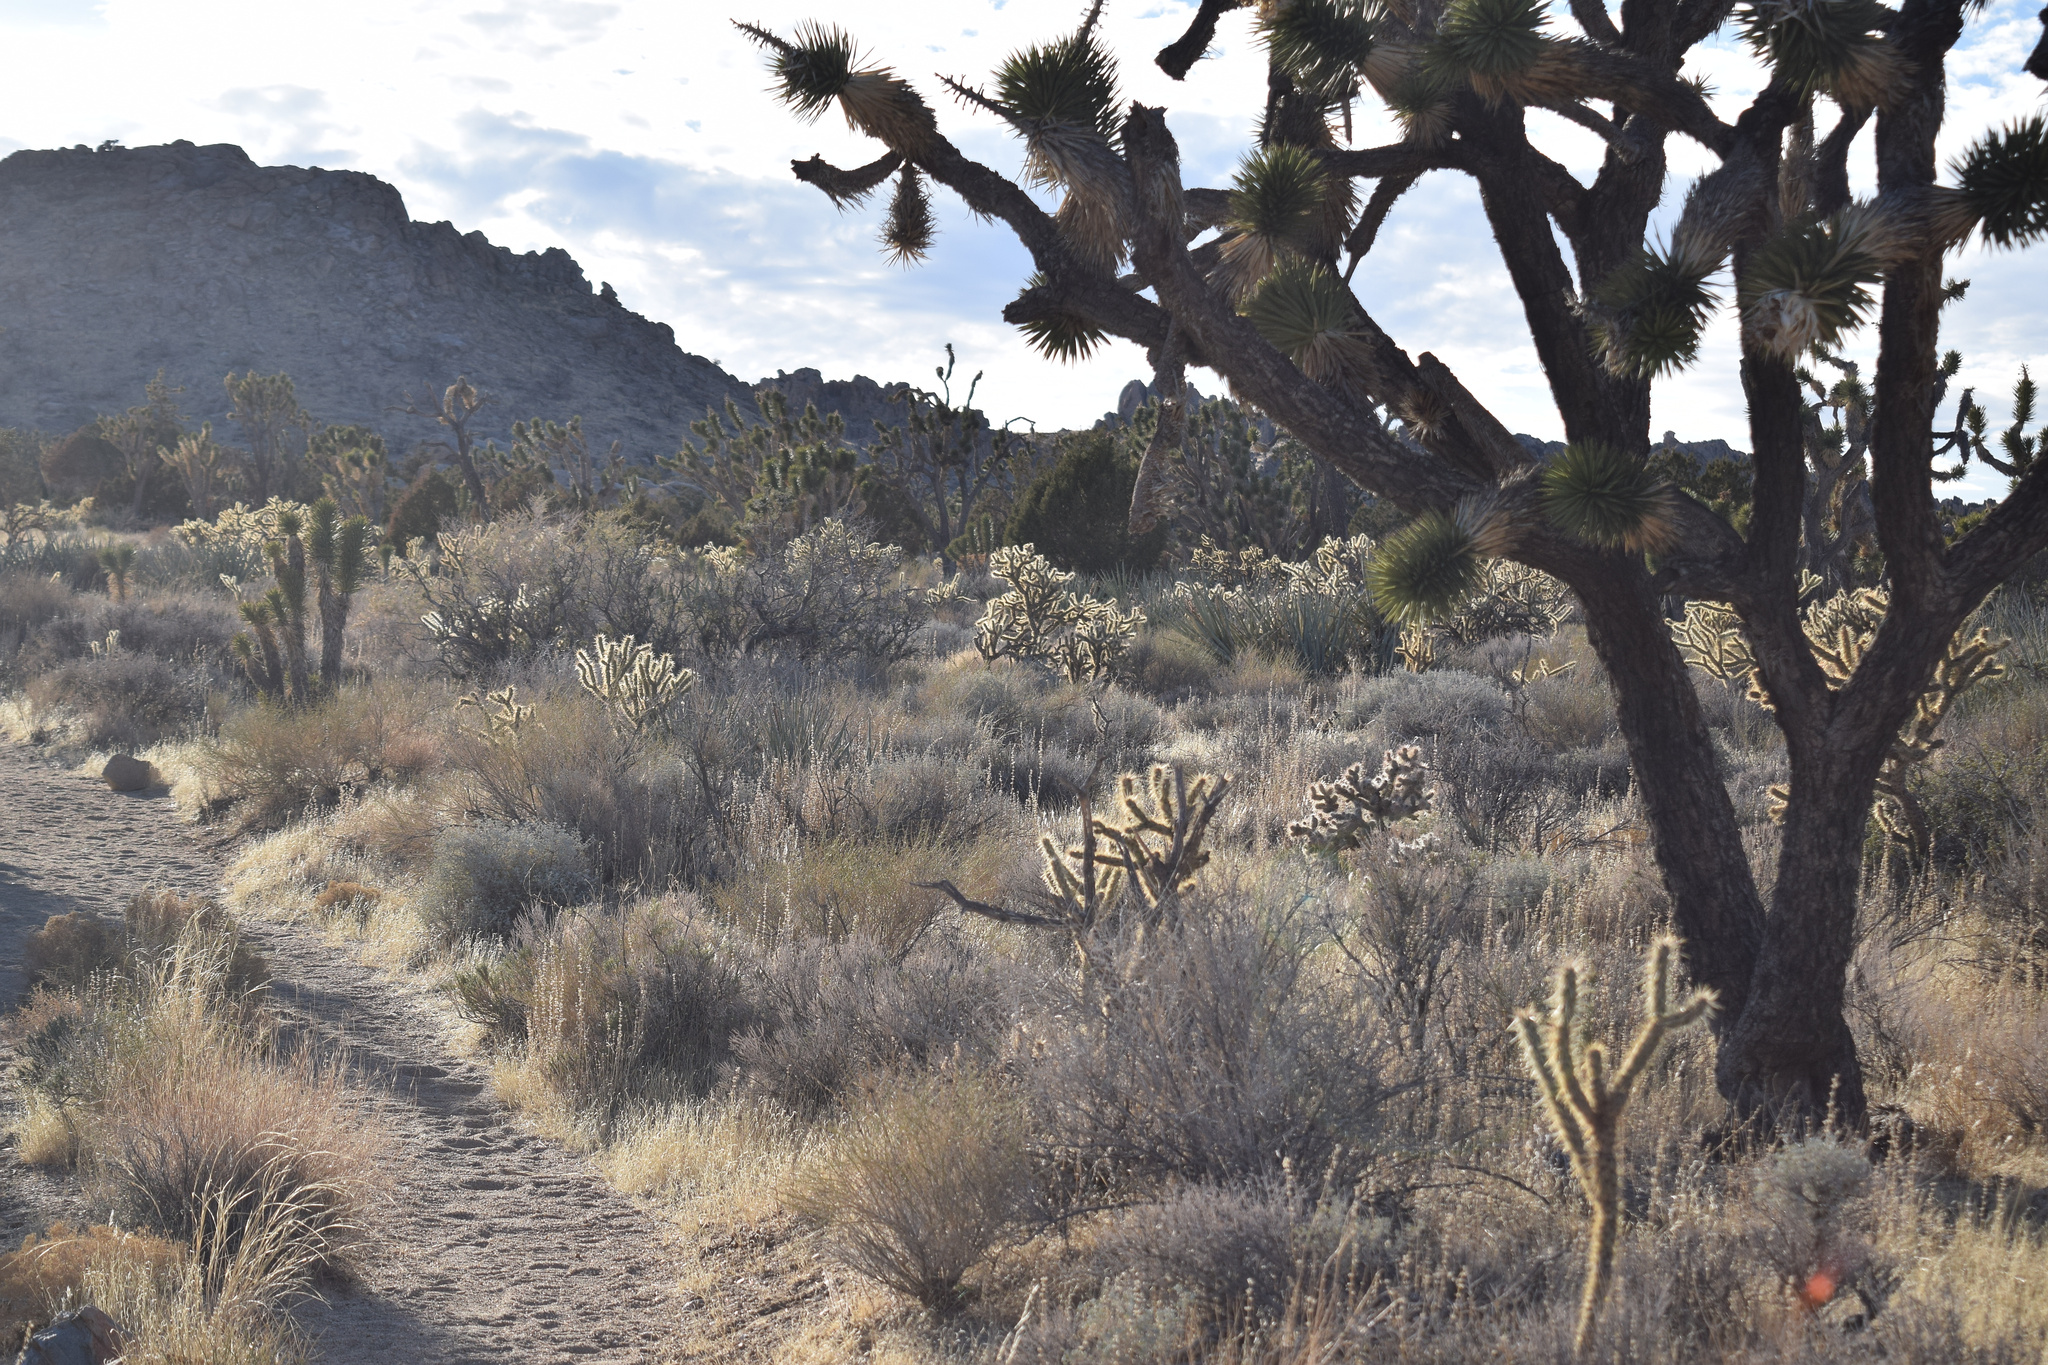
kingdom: Plantae
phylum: Tracheophyta
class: Liliopsida
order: Asparagales
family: Asparagaceae
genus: Yucca
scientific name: Yucca brevifolia
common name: Joshua tree
